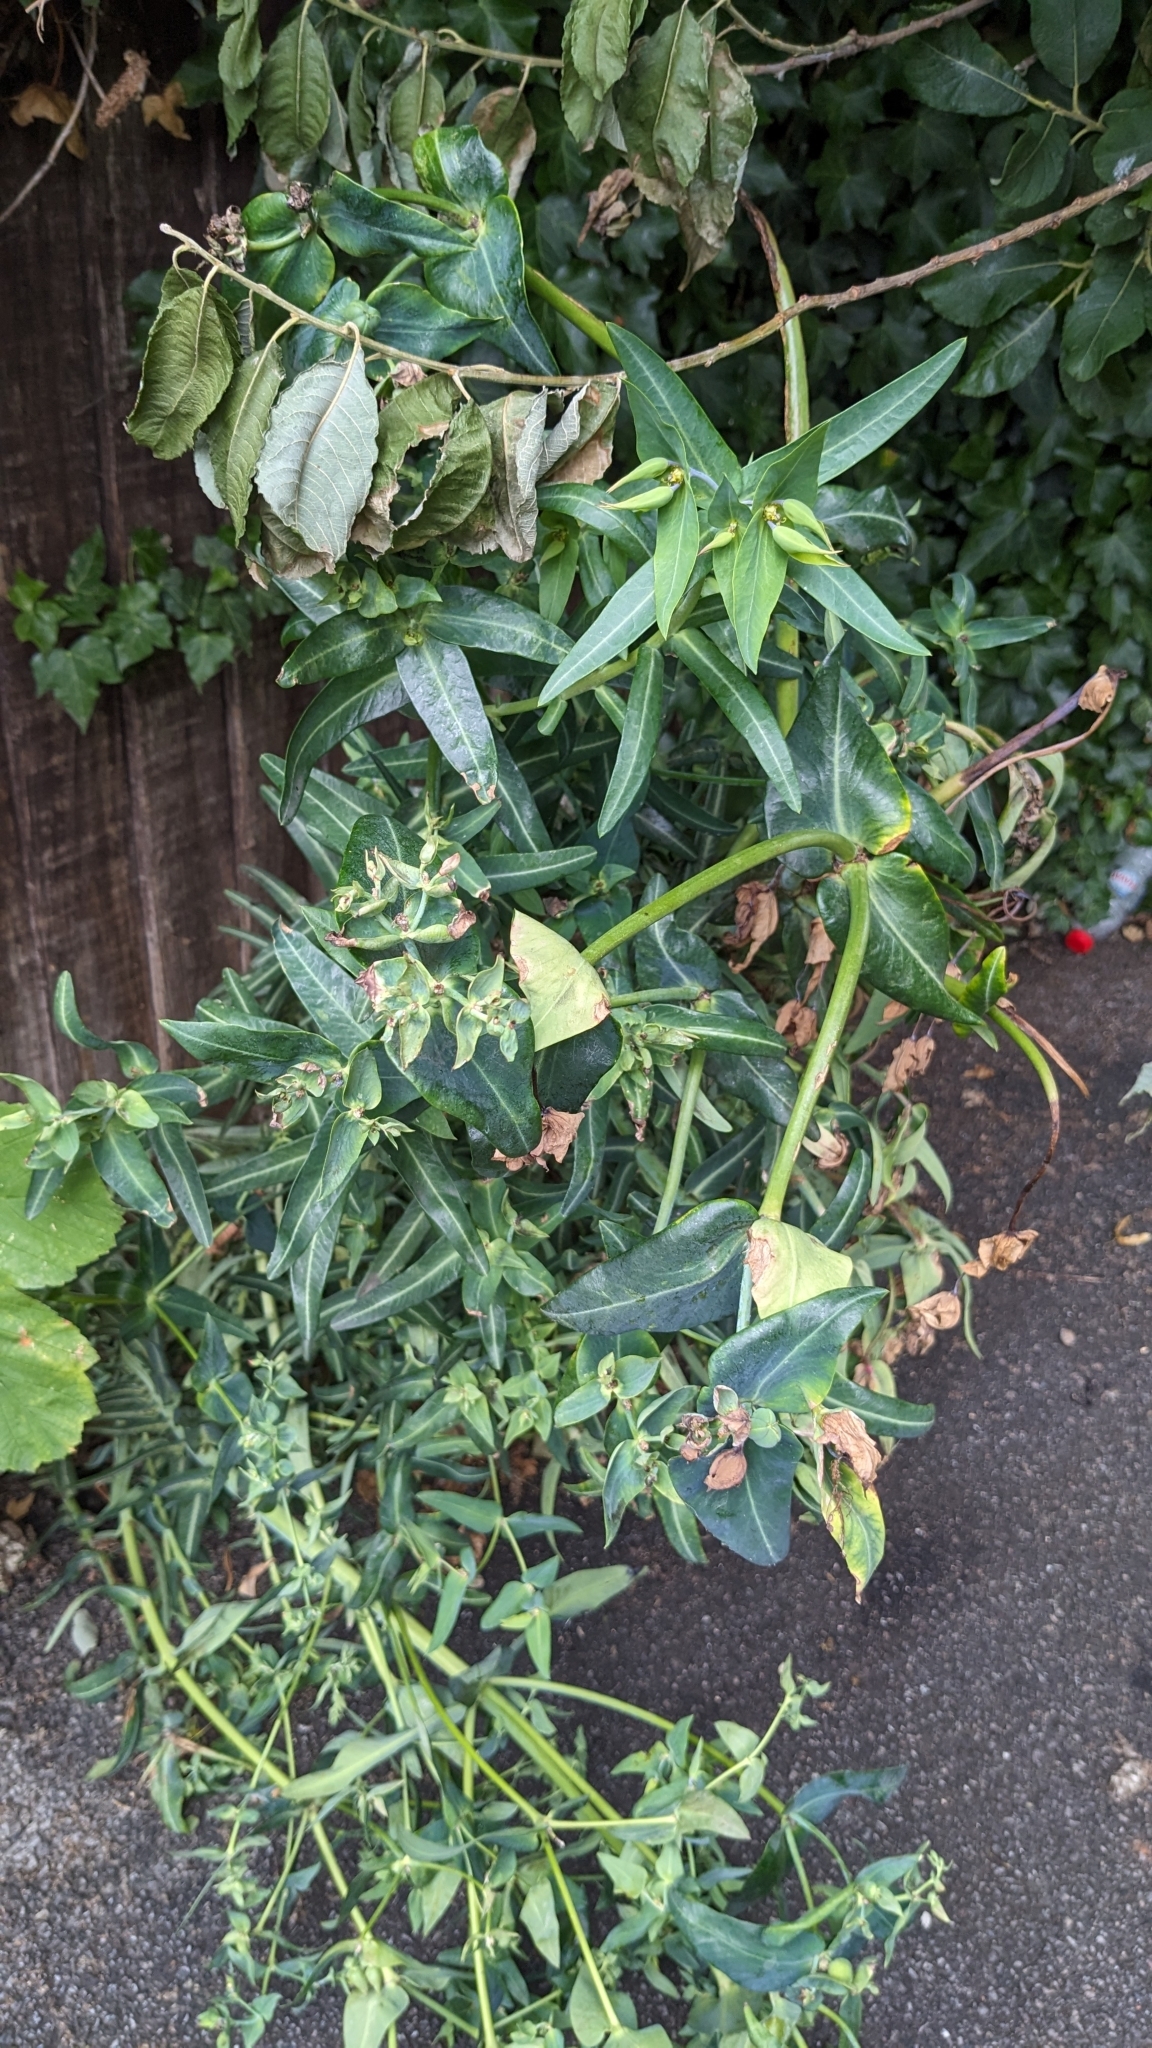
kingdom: Plantae
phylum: Tracheophyta
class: Magnoliopsida
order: Malpighiales
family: Euphorbiaceae
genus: Euphorbia
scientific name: Euphorbia lathyris
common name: Caper spurge
